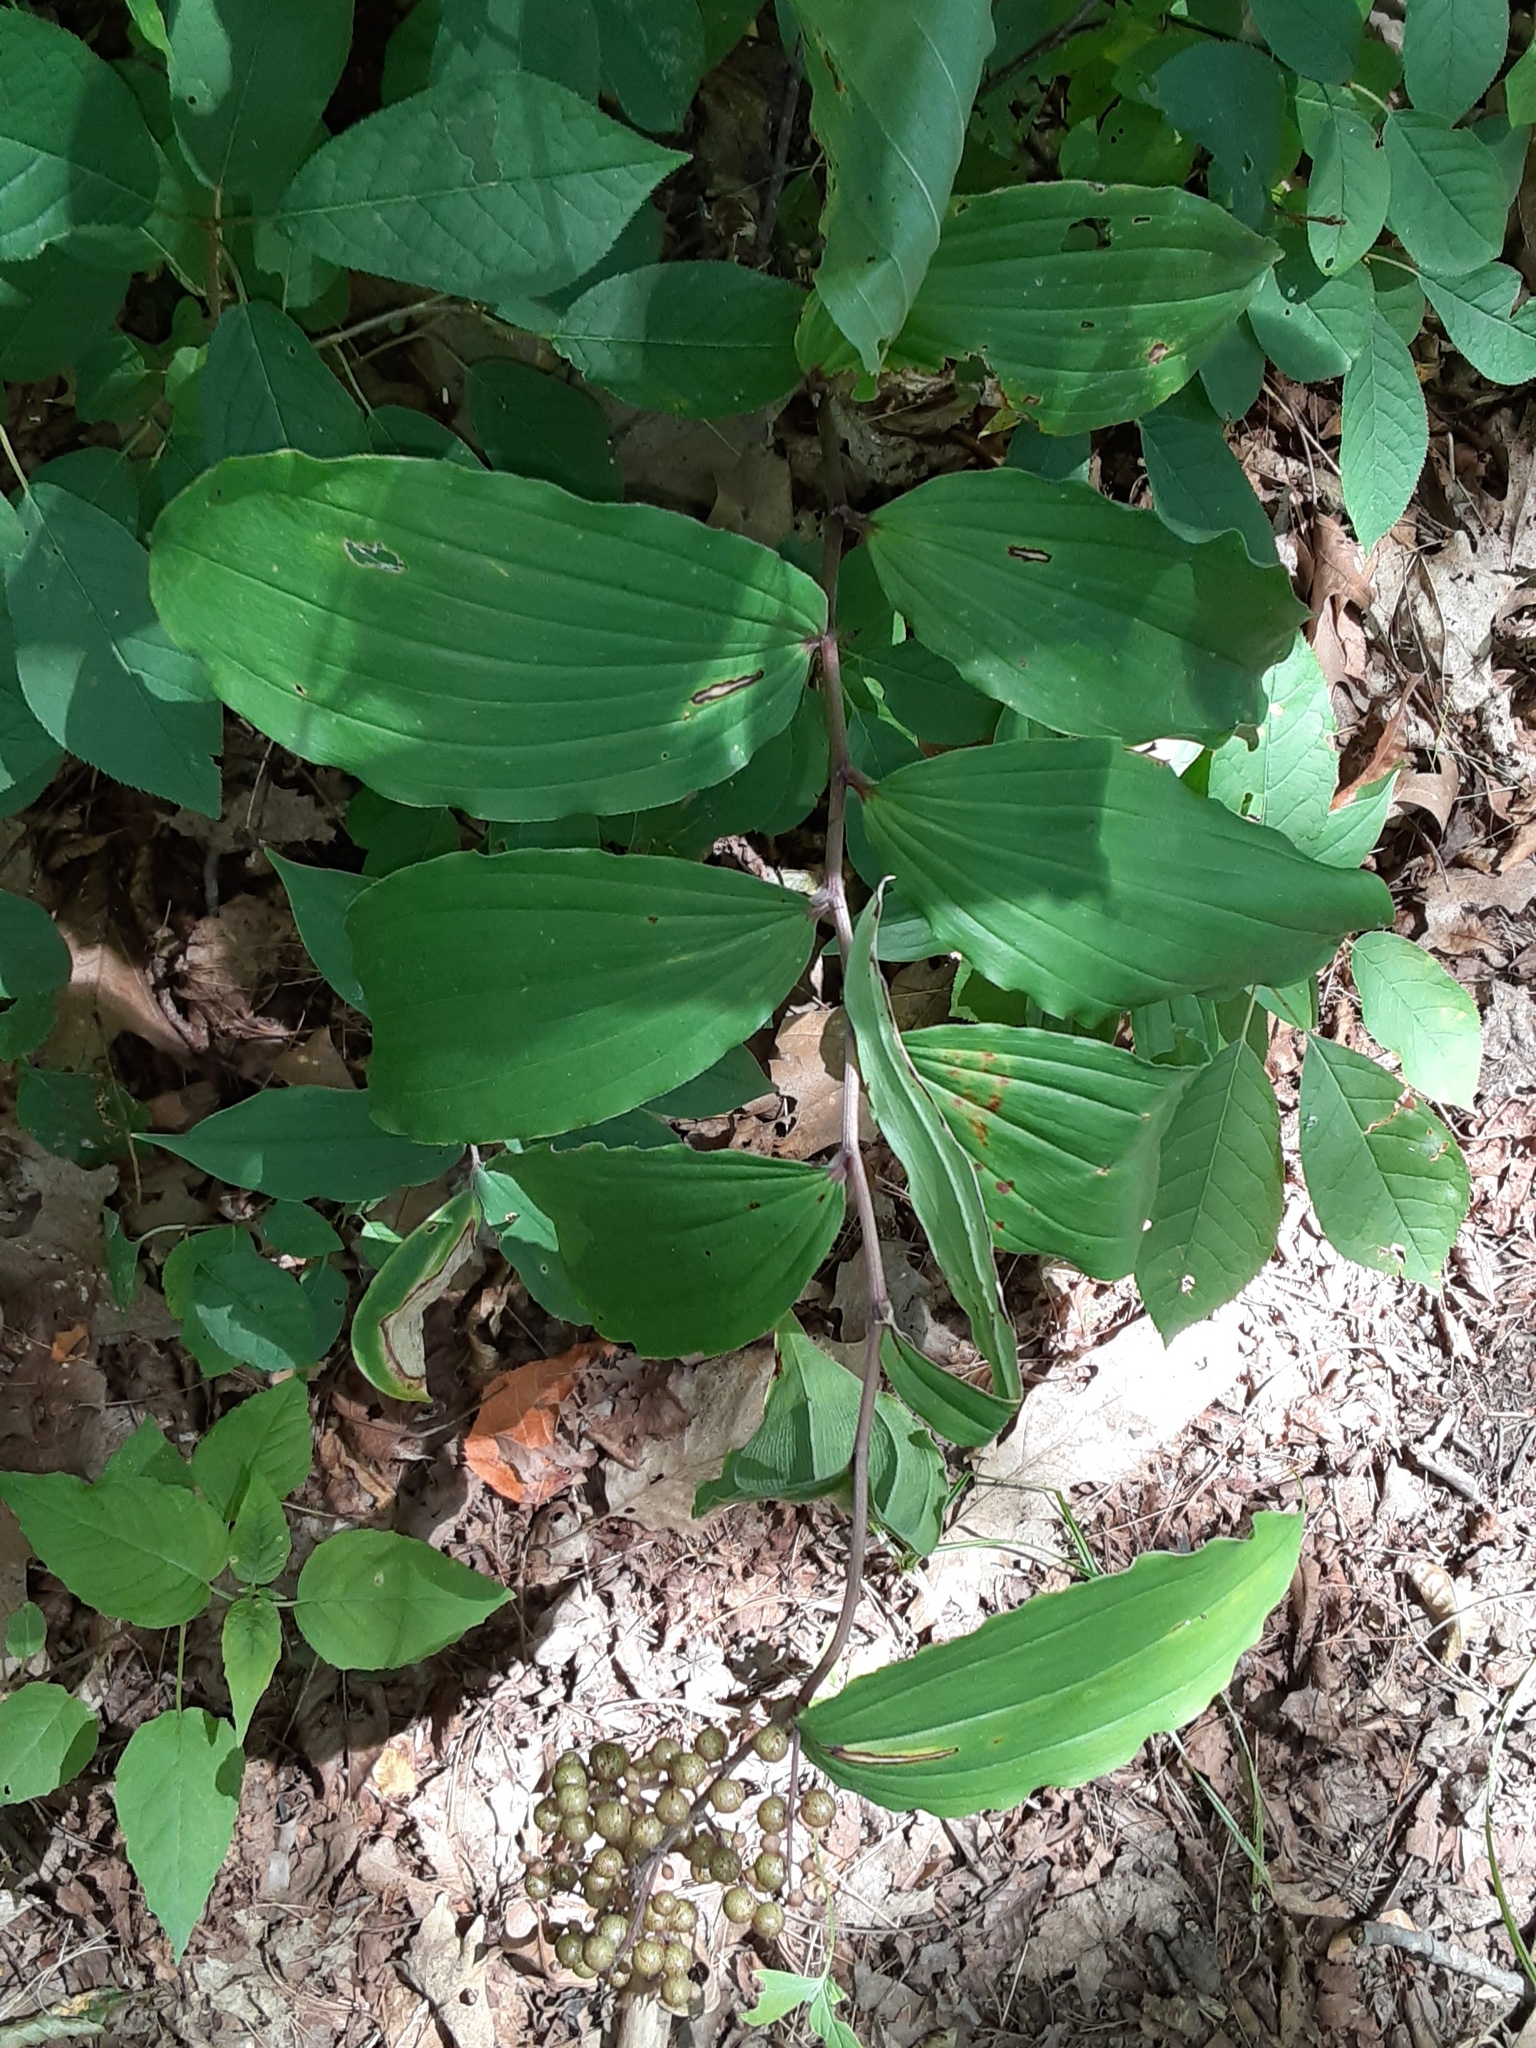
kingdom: Plantae
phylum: Tracheophyta
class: Liliopsida
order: Asparagales
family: Asparagaceae
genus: Maianthemum
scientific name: Maianthemum racemosum
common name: False spikenard
